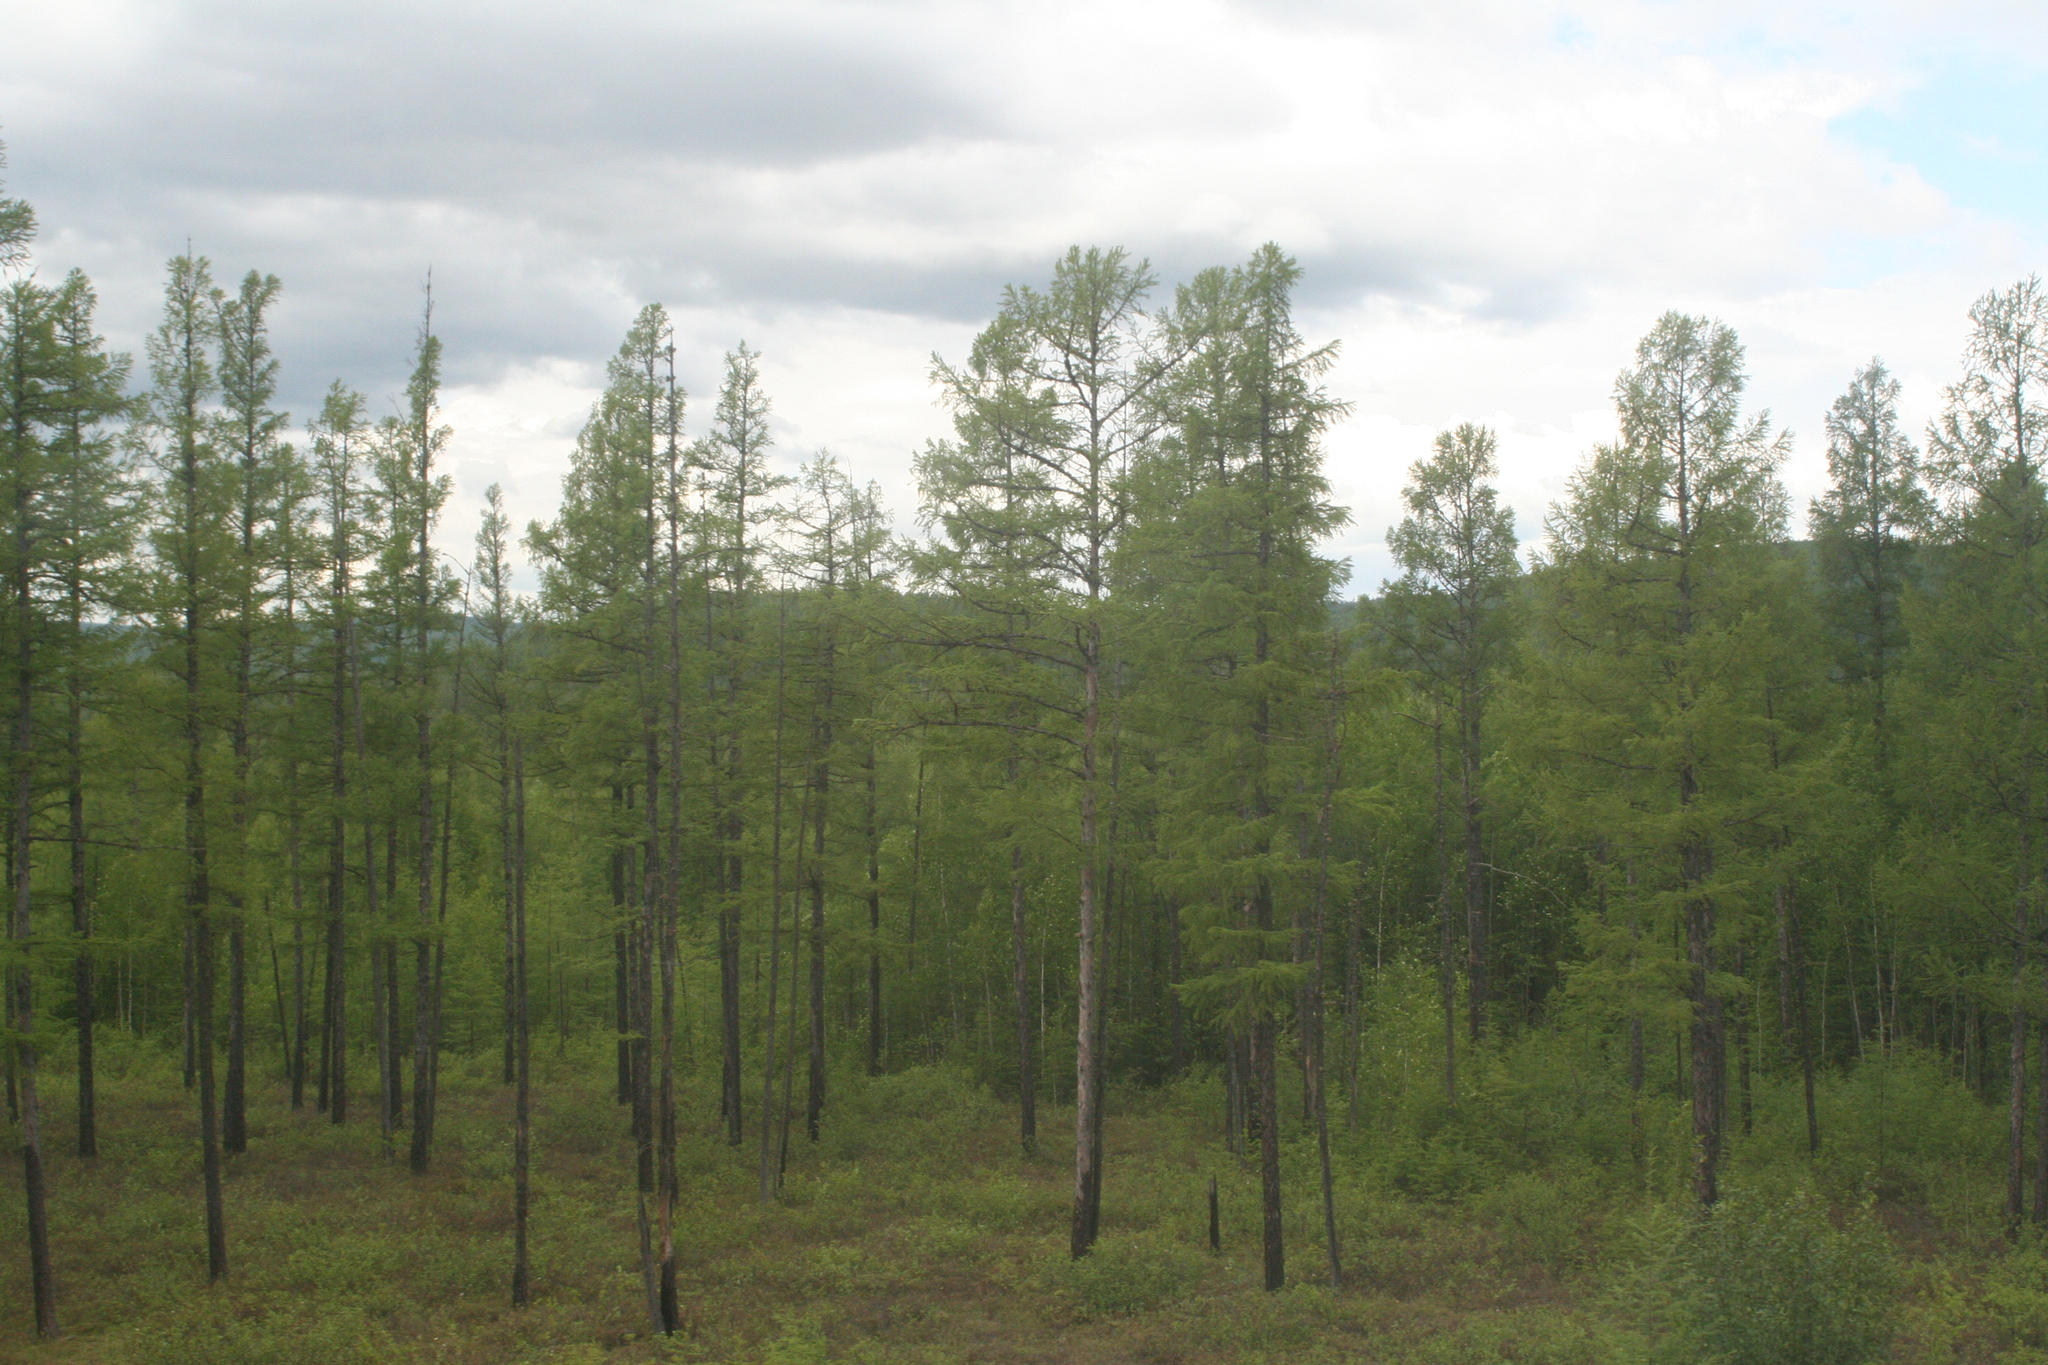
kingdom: Plantae
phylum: Tracheophyta
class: Pinopsida
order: Pinales
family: Pinaceae
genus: Larix
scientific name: Larix gmelinii
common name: Dahurian larch
